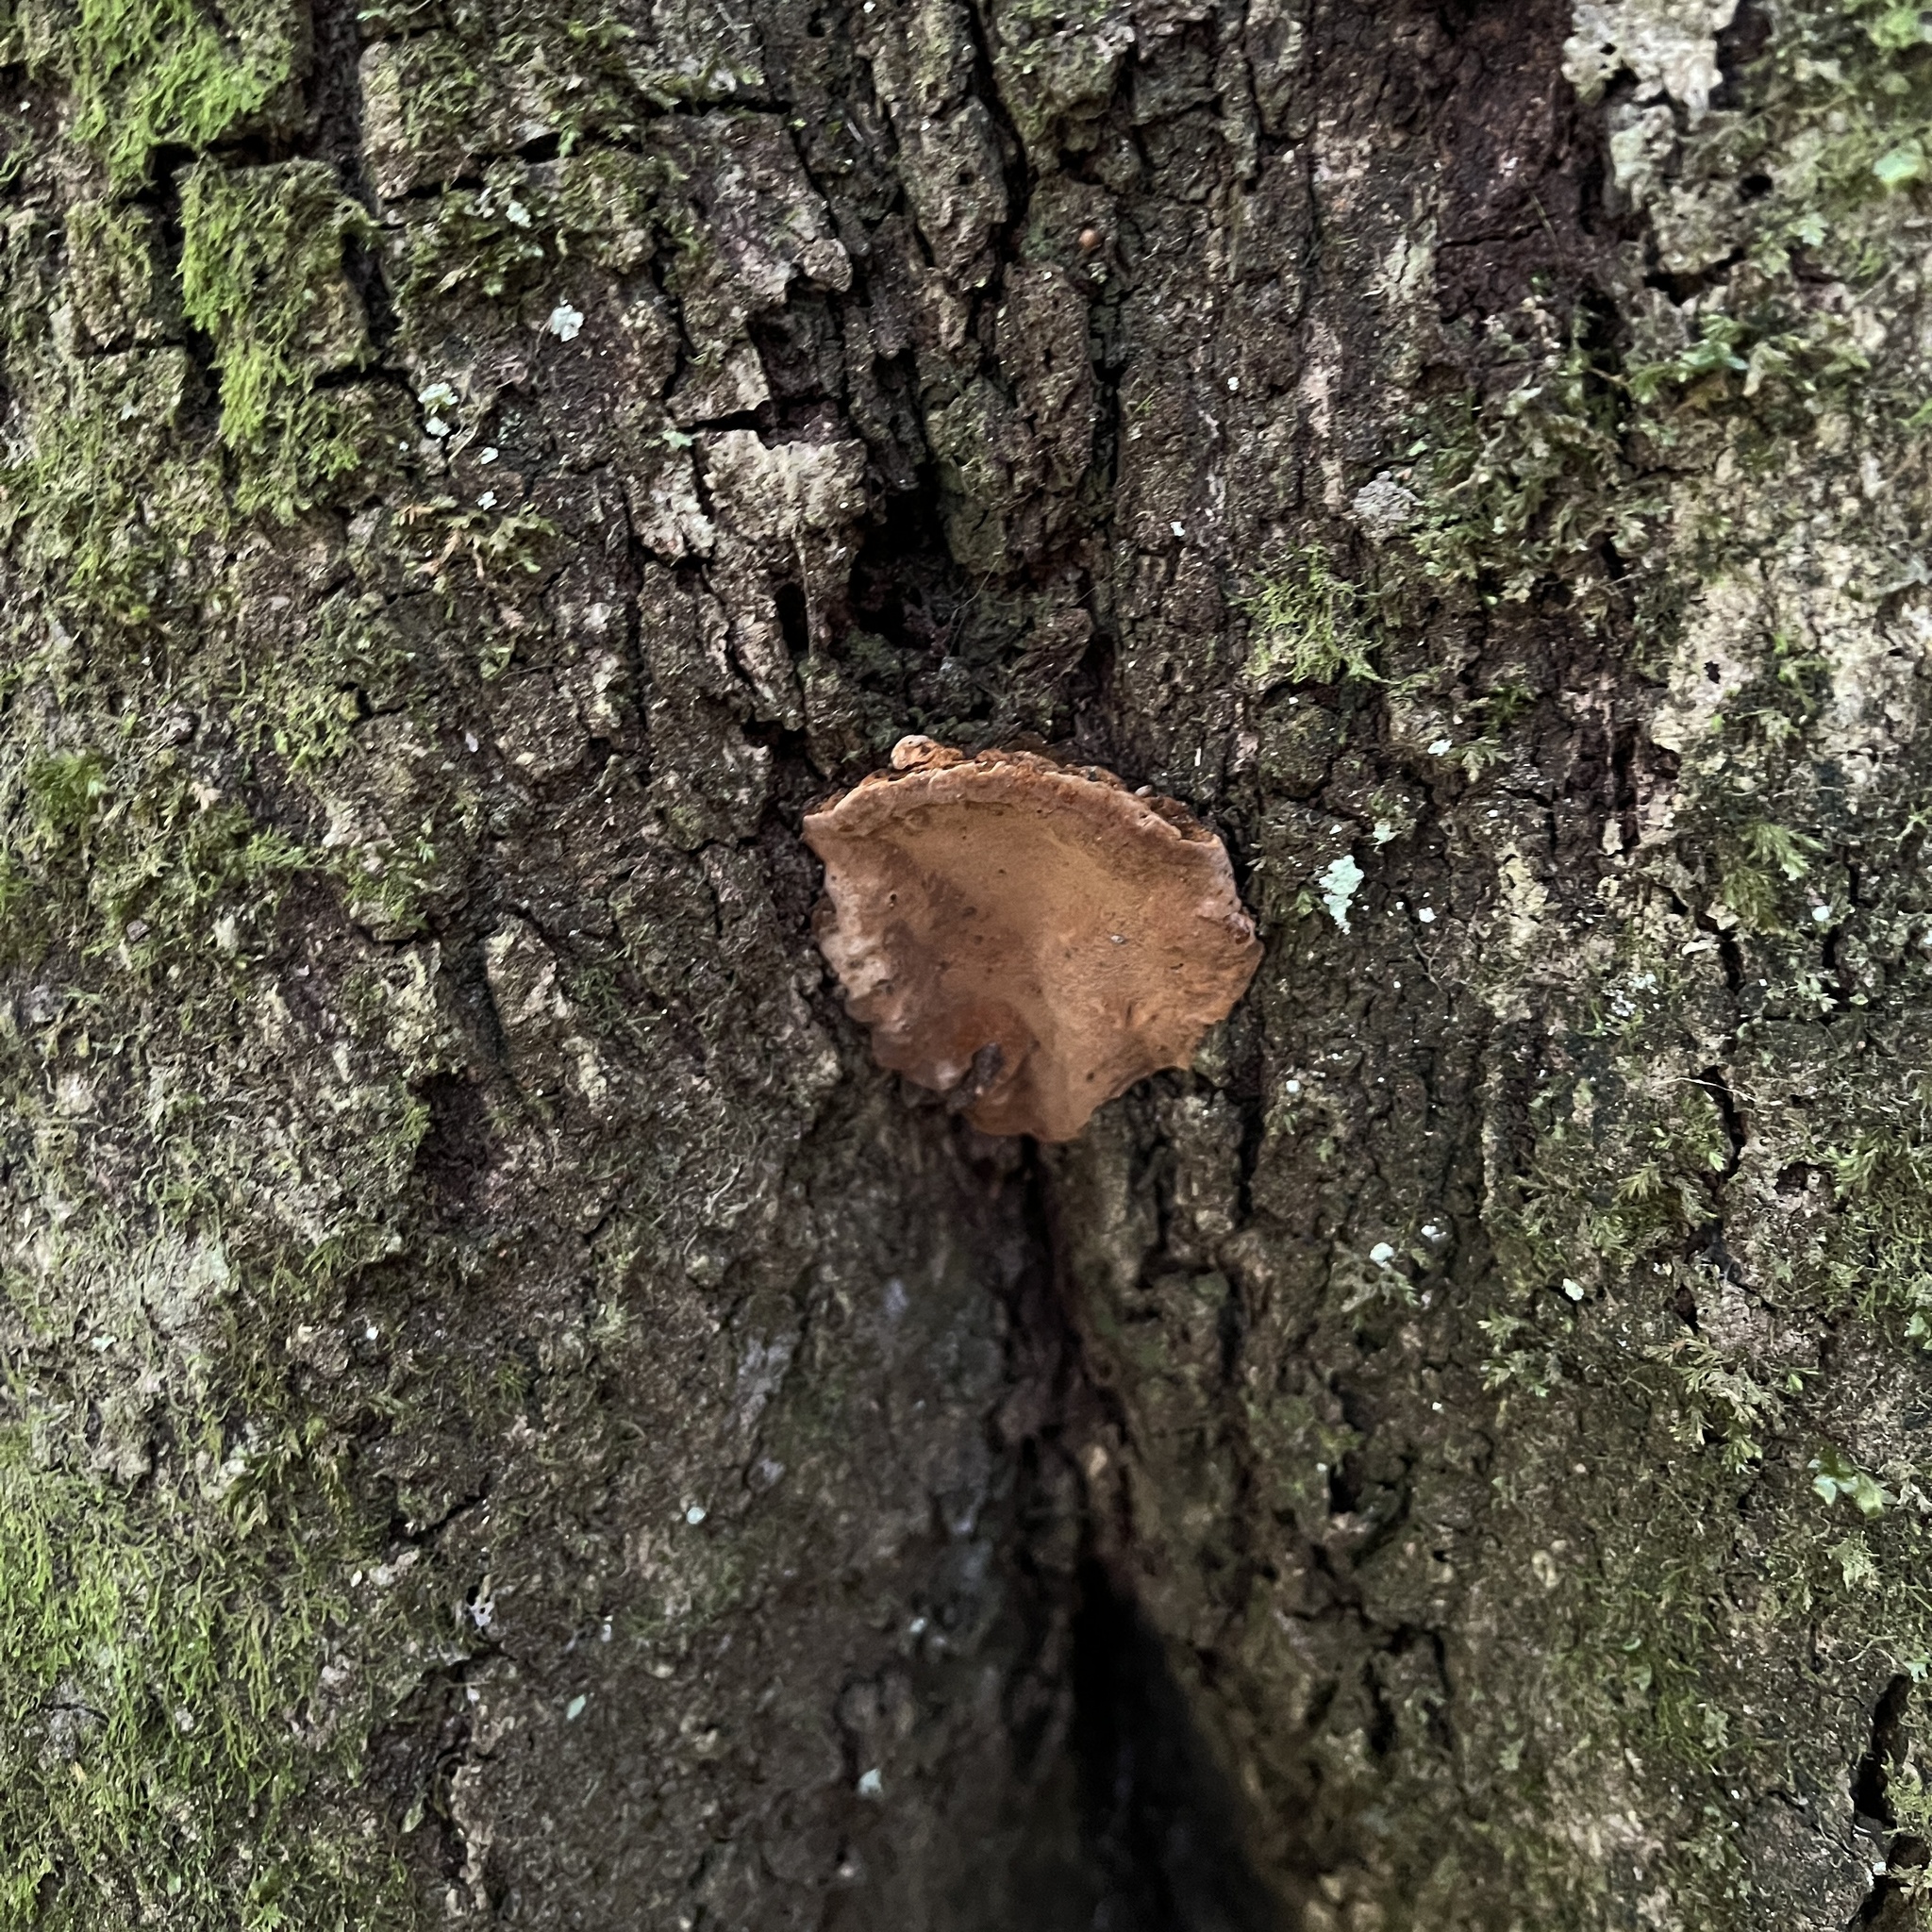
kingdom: Fungi
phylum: Basidiomycota
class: Agaricomycetes
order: Hymenochaetales
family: Hymenochaetaceae
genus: Fuscoporia
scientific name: Fuscoporia senex
